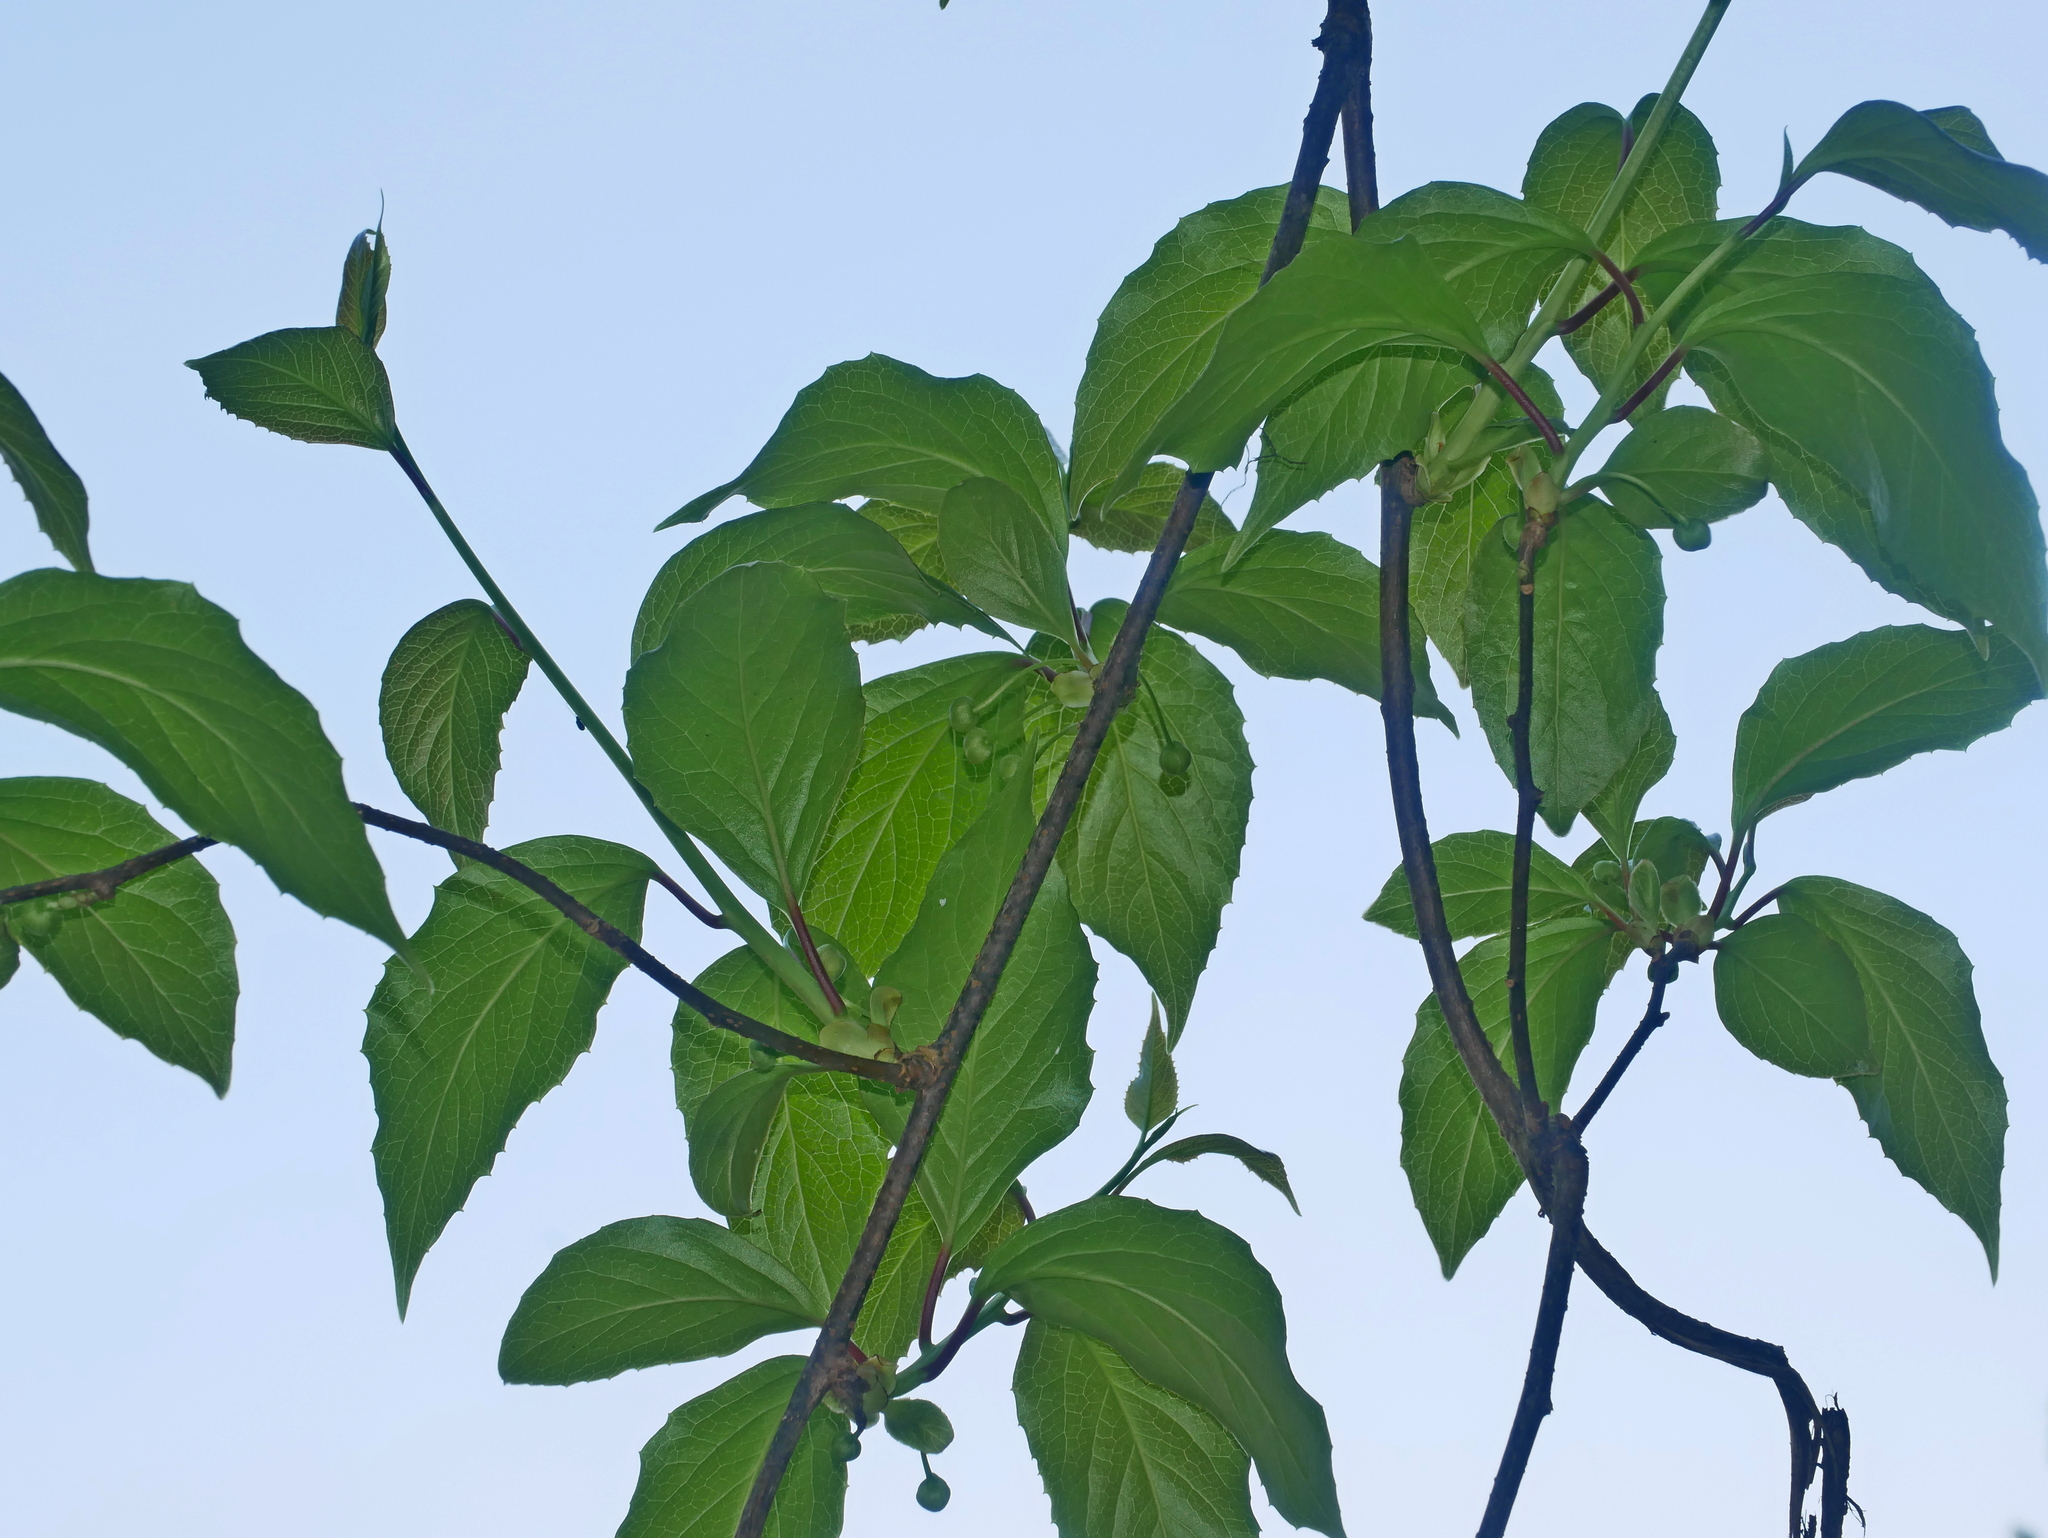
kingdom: Plantae
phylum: Tracheophyta
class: Magnoliopsida
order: Austrobaileyales
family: Schisandraceae
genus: Schisandra
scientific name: Schisandra arisanensis
